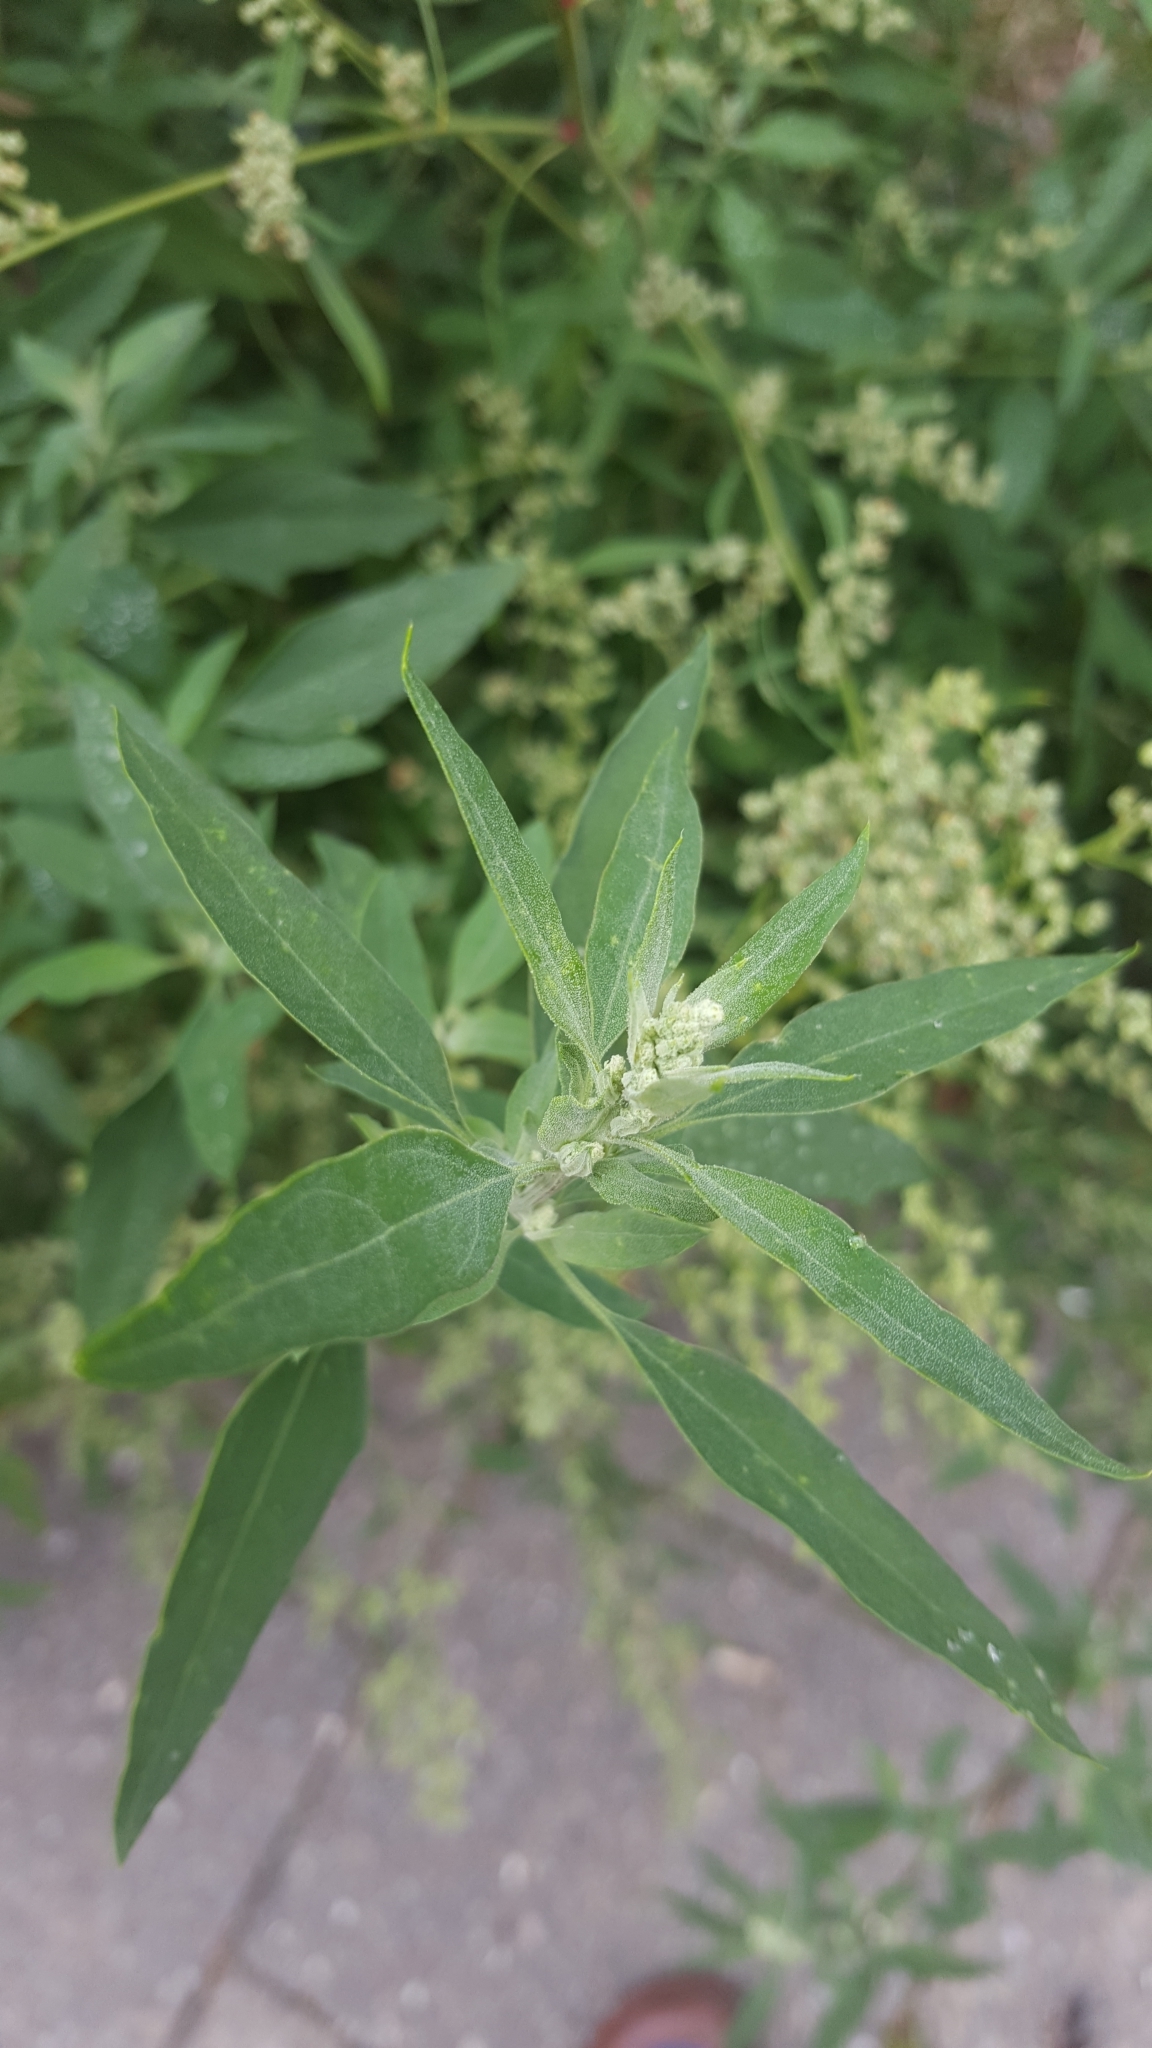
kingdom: Plantae
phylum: Tracheophyta
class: Magnoliopsida
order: Caryophyllales
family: Amaranthaceae
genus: Chenopodium
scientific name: Chenopodium album
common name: Fat-hen
